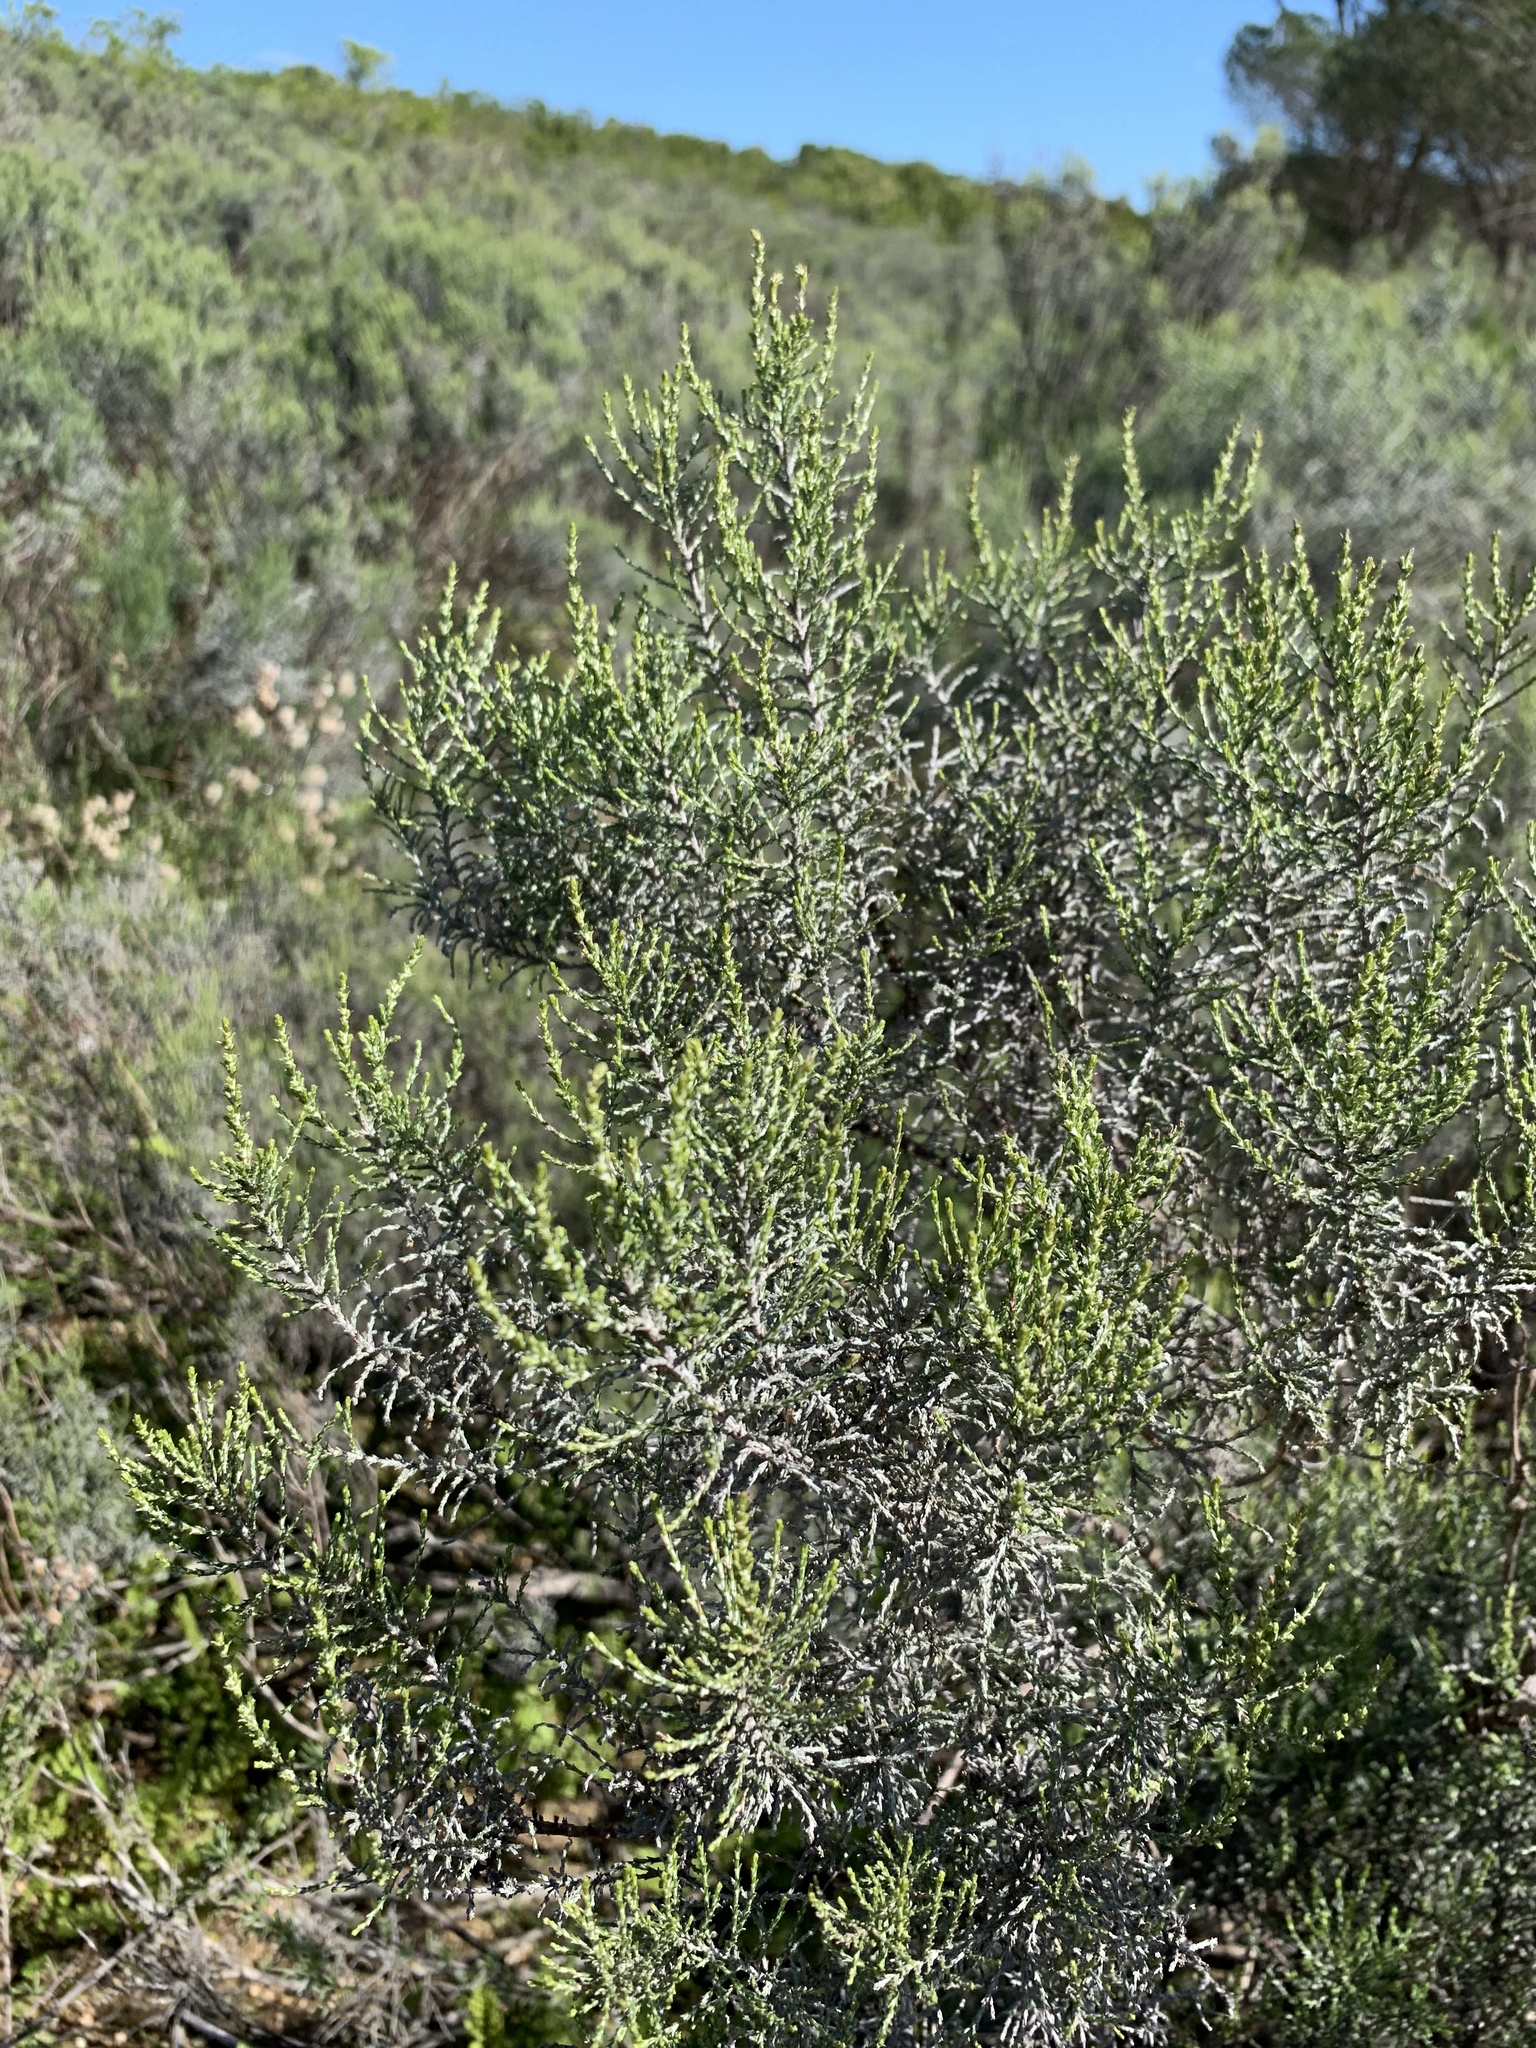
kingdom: Plantae
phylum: Tracheophyta
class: Magnoliopsida
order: Asterales
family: Asteraceae
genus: Dicerothamnus
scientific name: Dicerothamnus rhinocerotis
